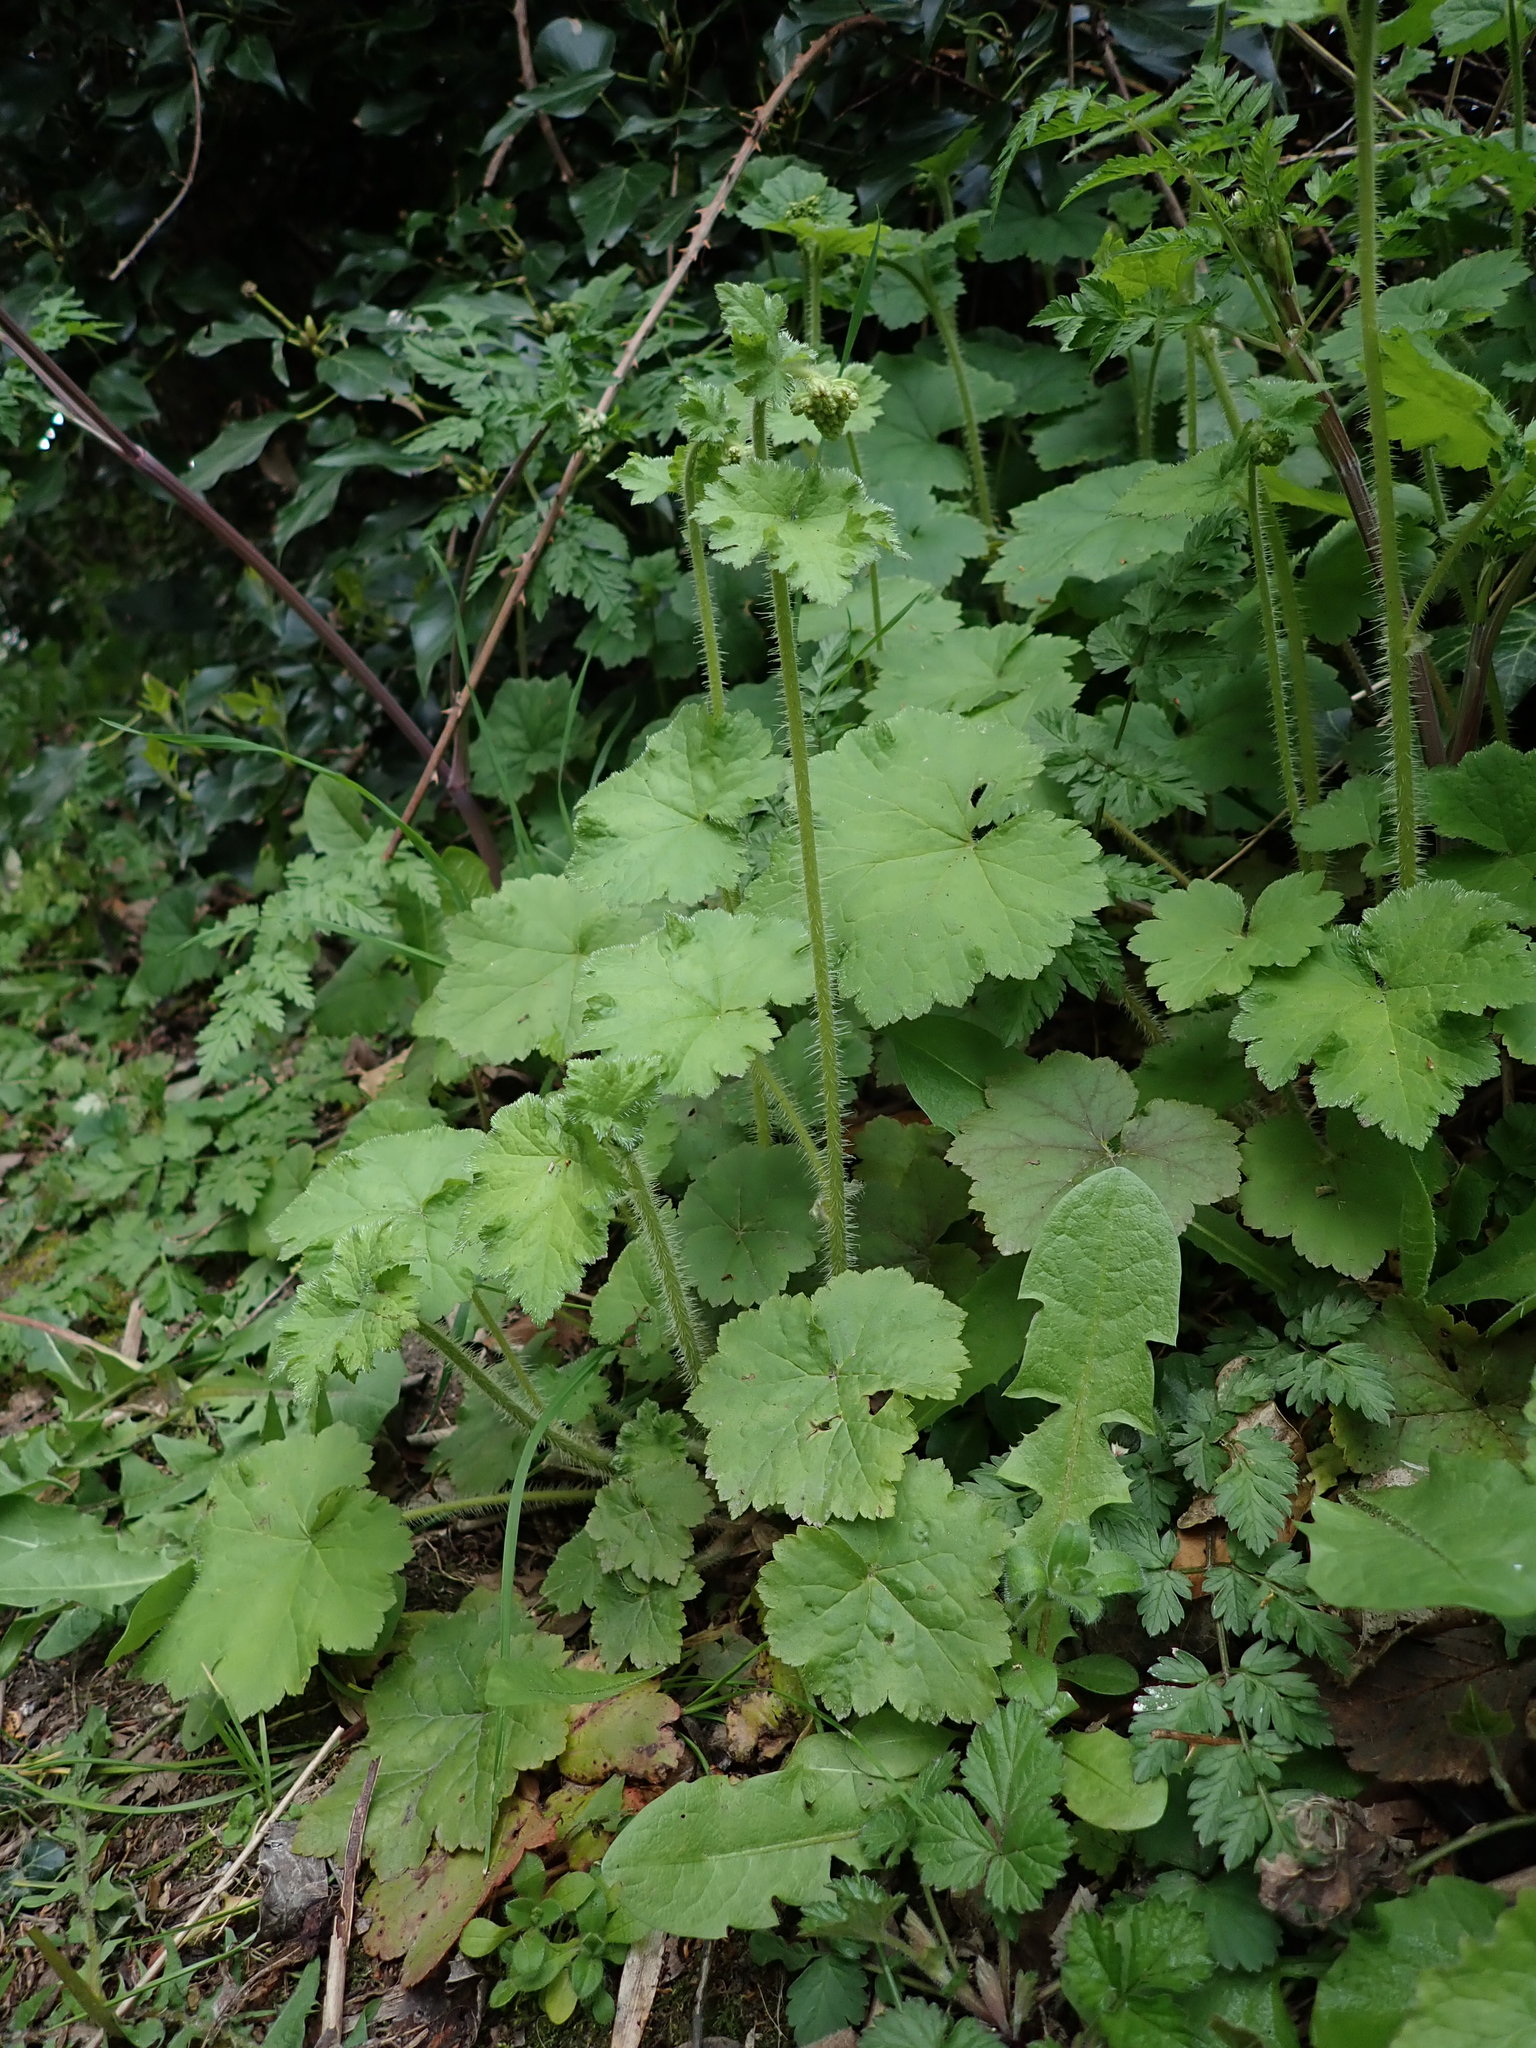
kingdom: Plantae
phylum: Tracheophyta
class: Magnoliopsida
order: Saxifragales
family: Saxifragaceae
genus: Tellima
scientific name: Tellima grandiflora
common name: Fringecups
